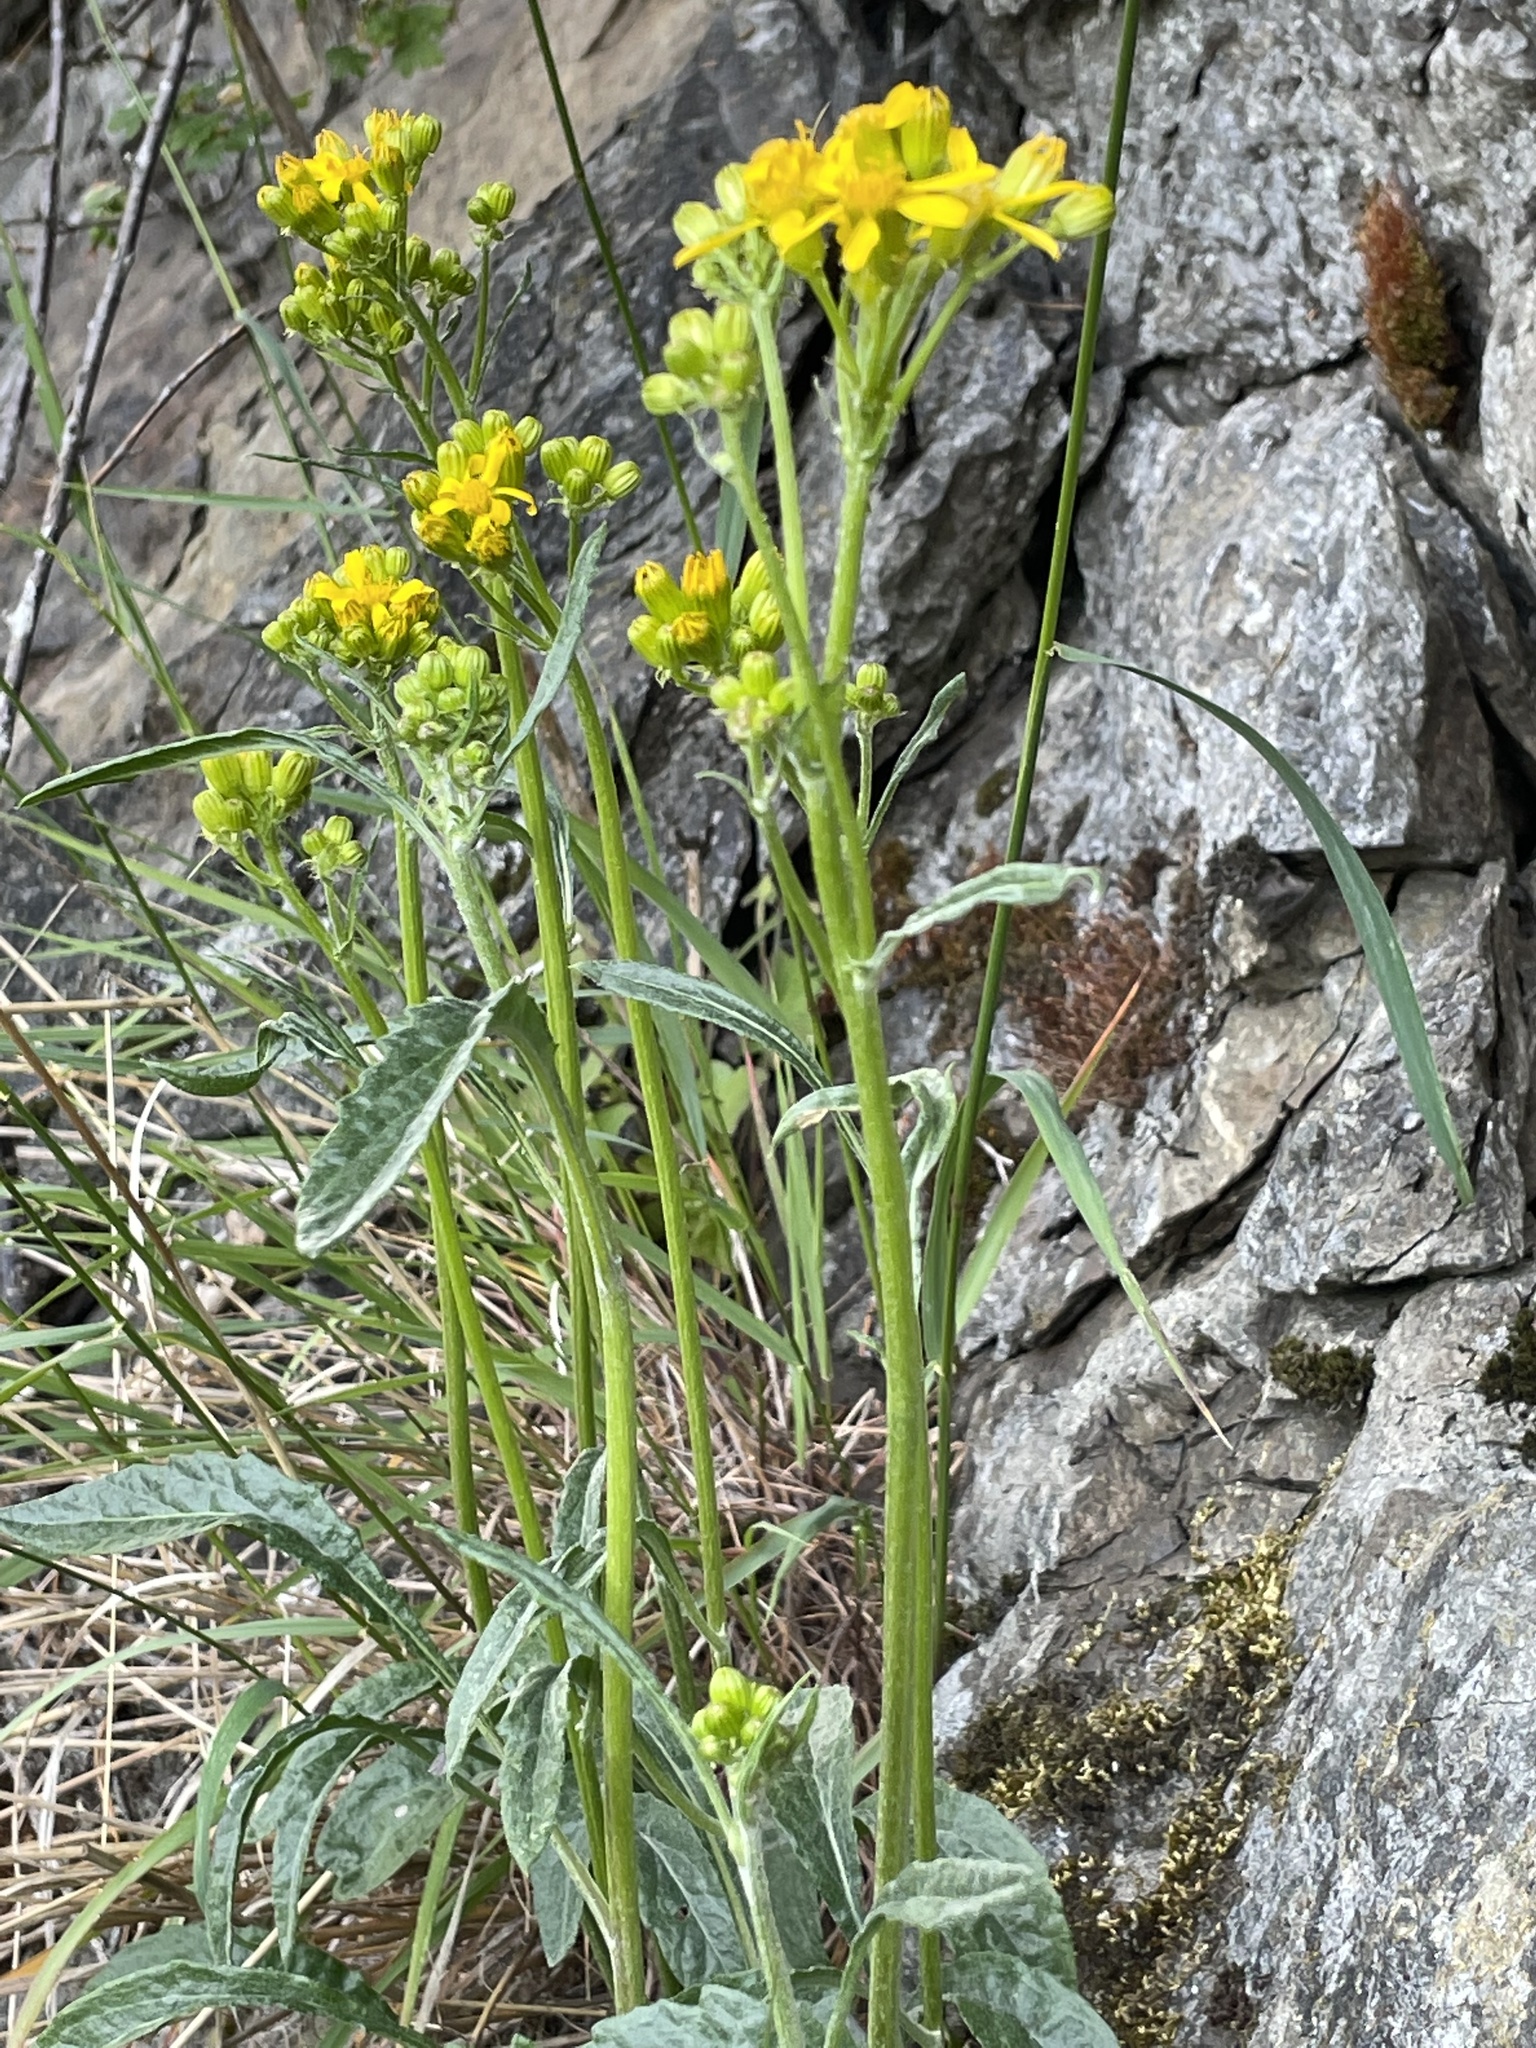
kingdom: Plantae
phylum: Tracheophyta
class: Magnoliopsida
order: Asterales
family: Asteraceae
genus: Packera
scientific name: Packera macounii
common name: Macoun's groundsel
